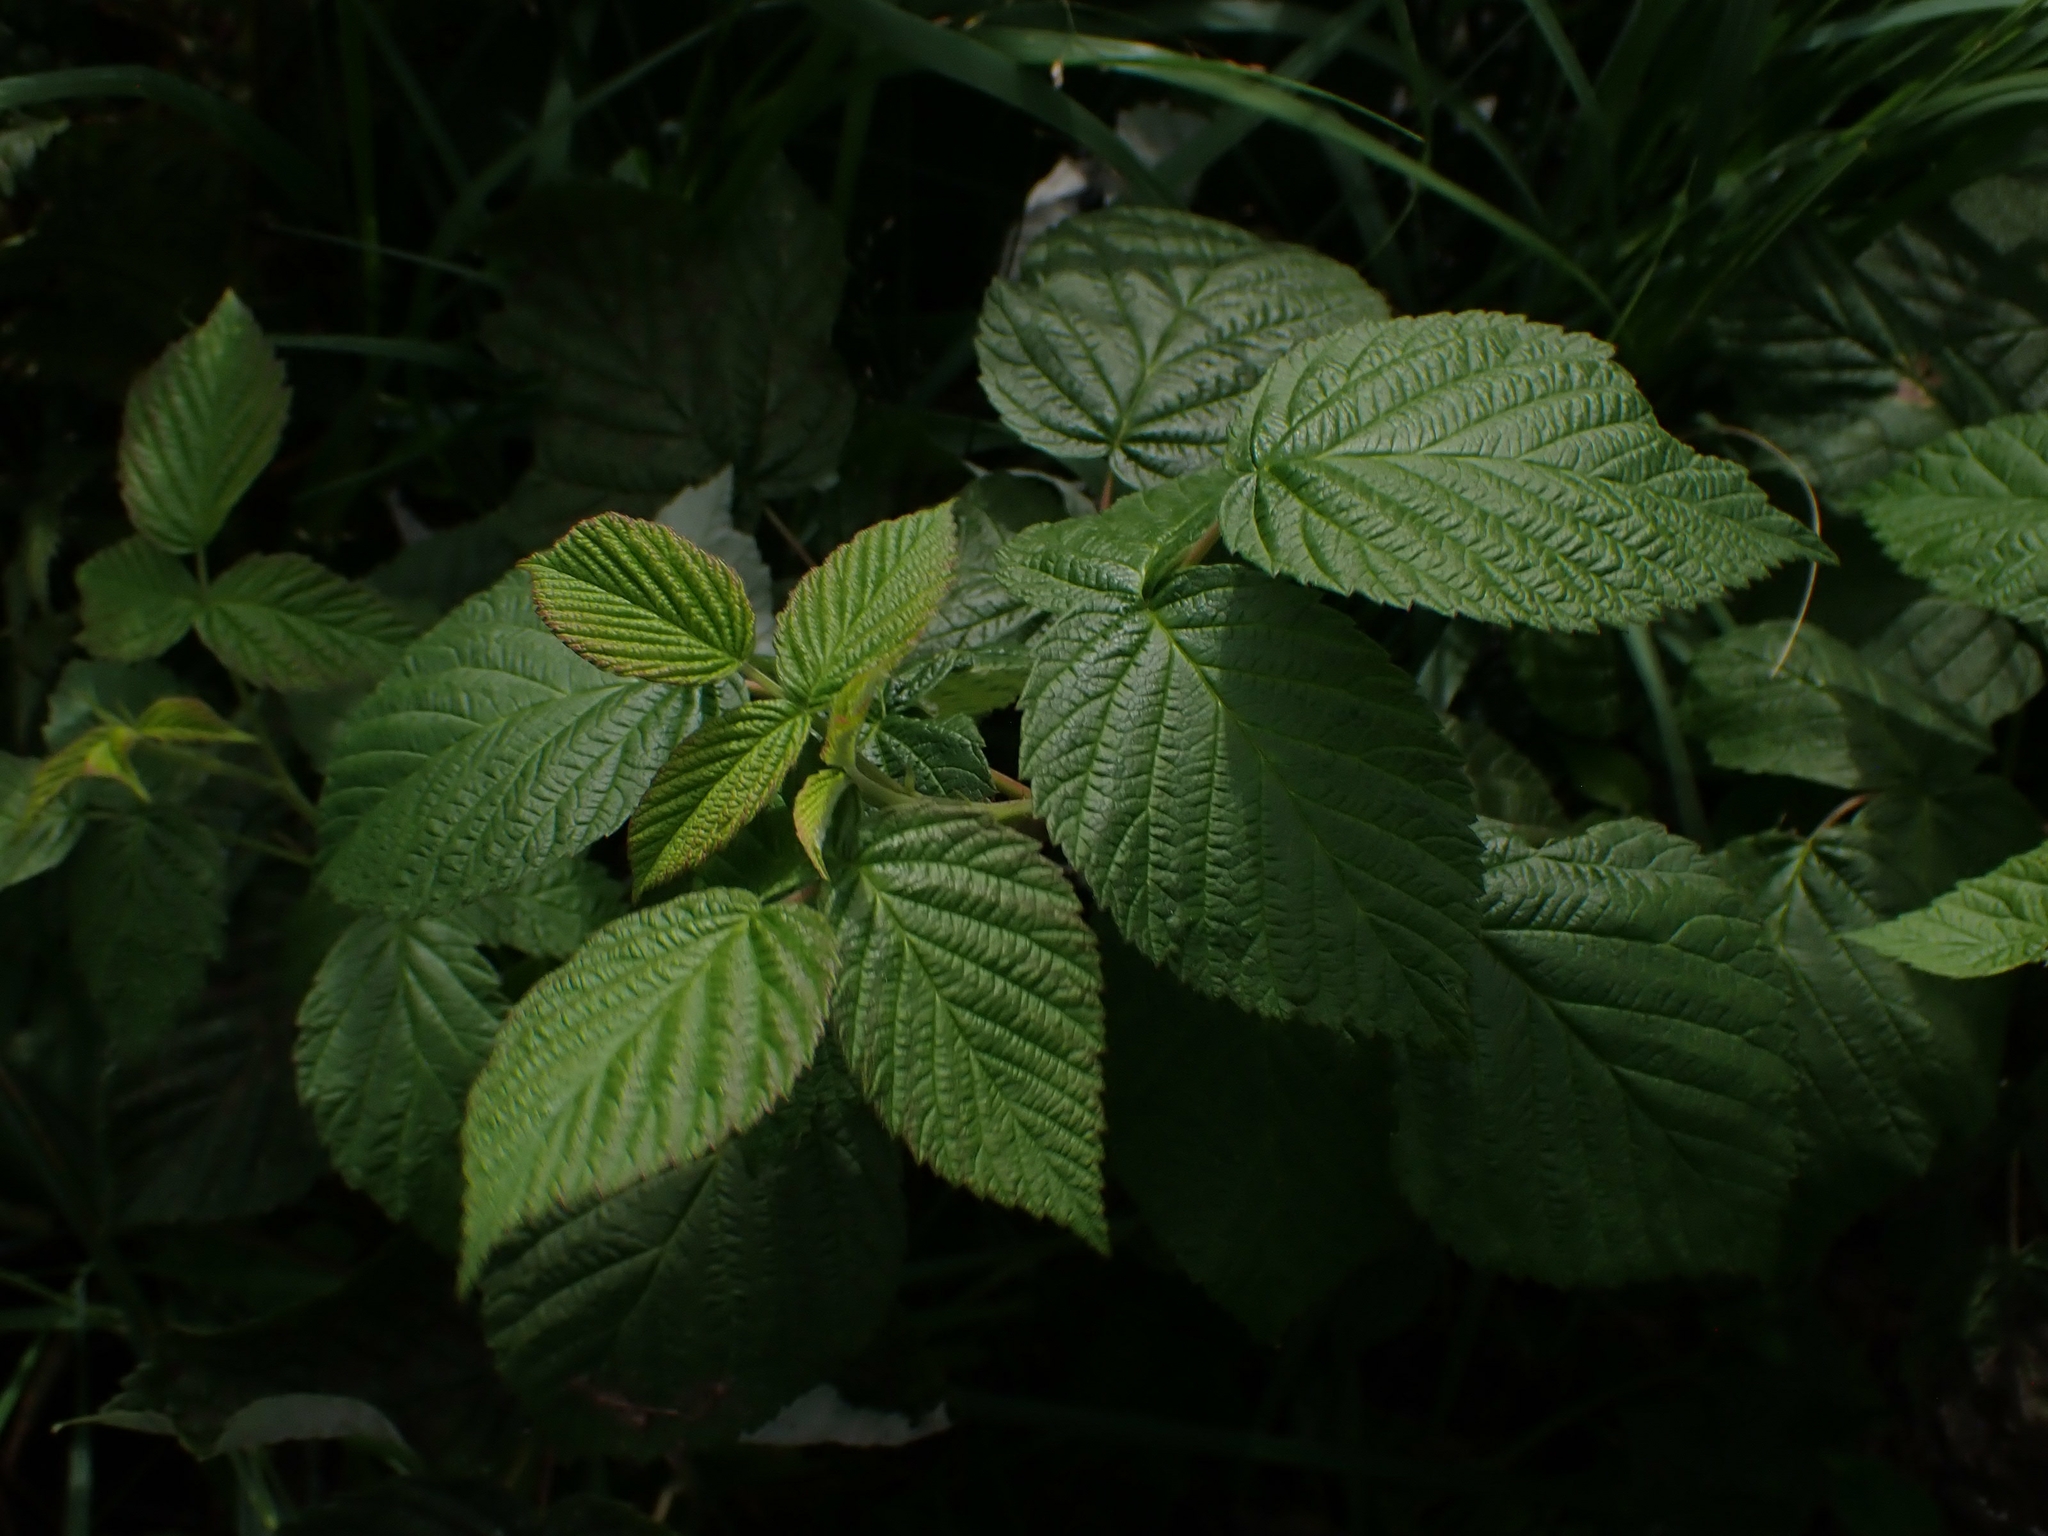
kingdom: Plantae
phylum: Tracheophyta
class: Magnoliopsida
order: Rosales
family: Rosaceae
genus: Rubus
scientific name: Rubus idaeus
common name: Raspberry
